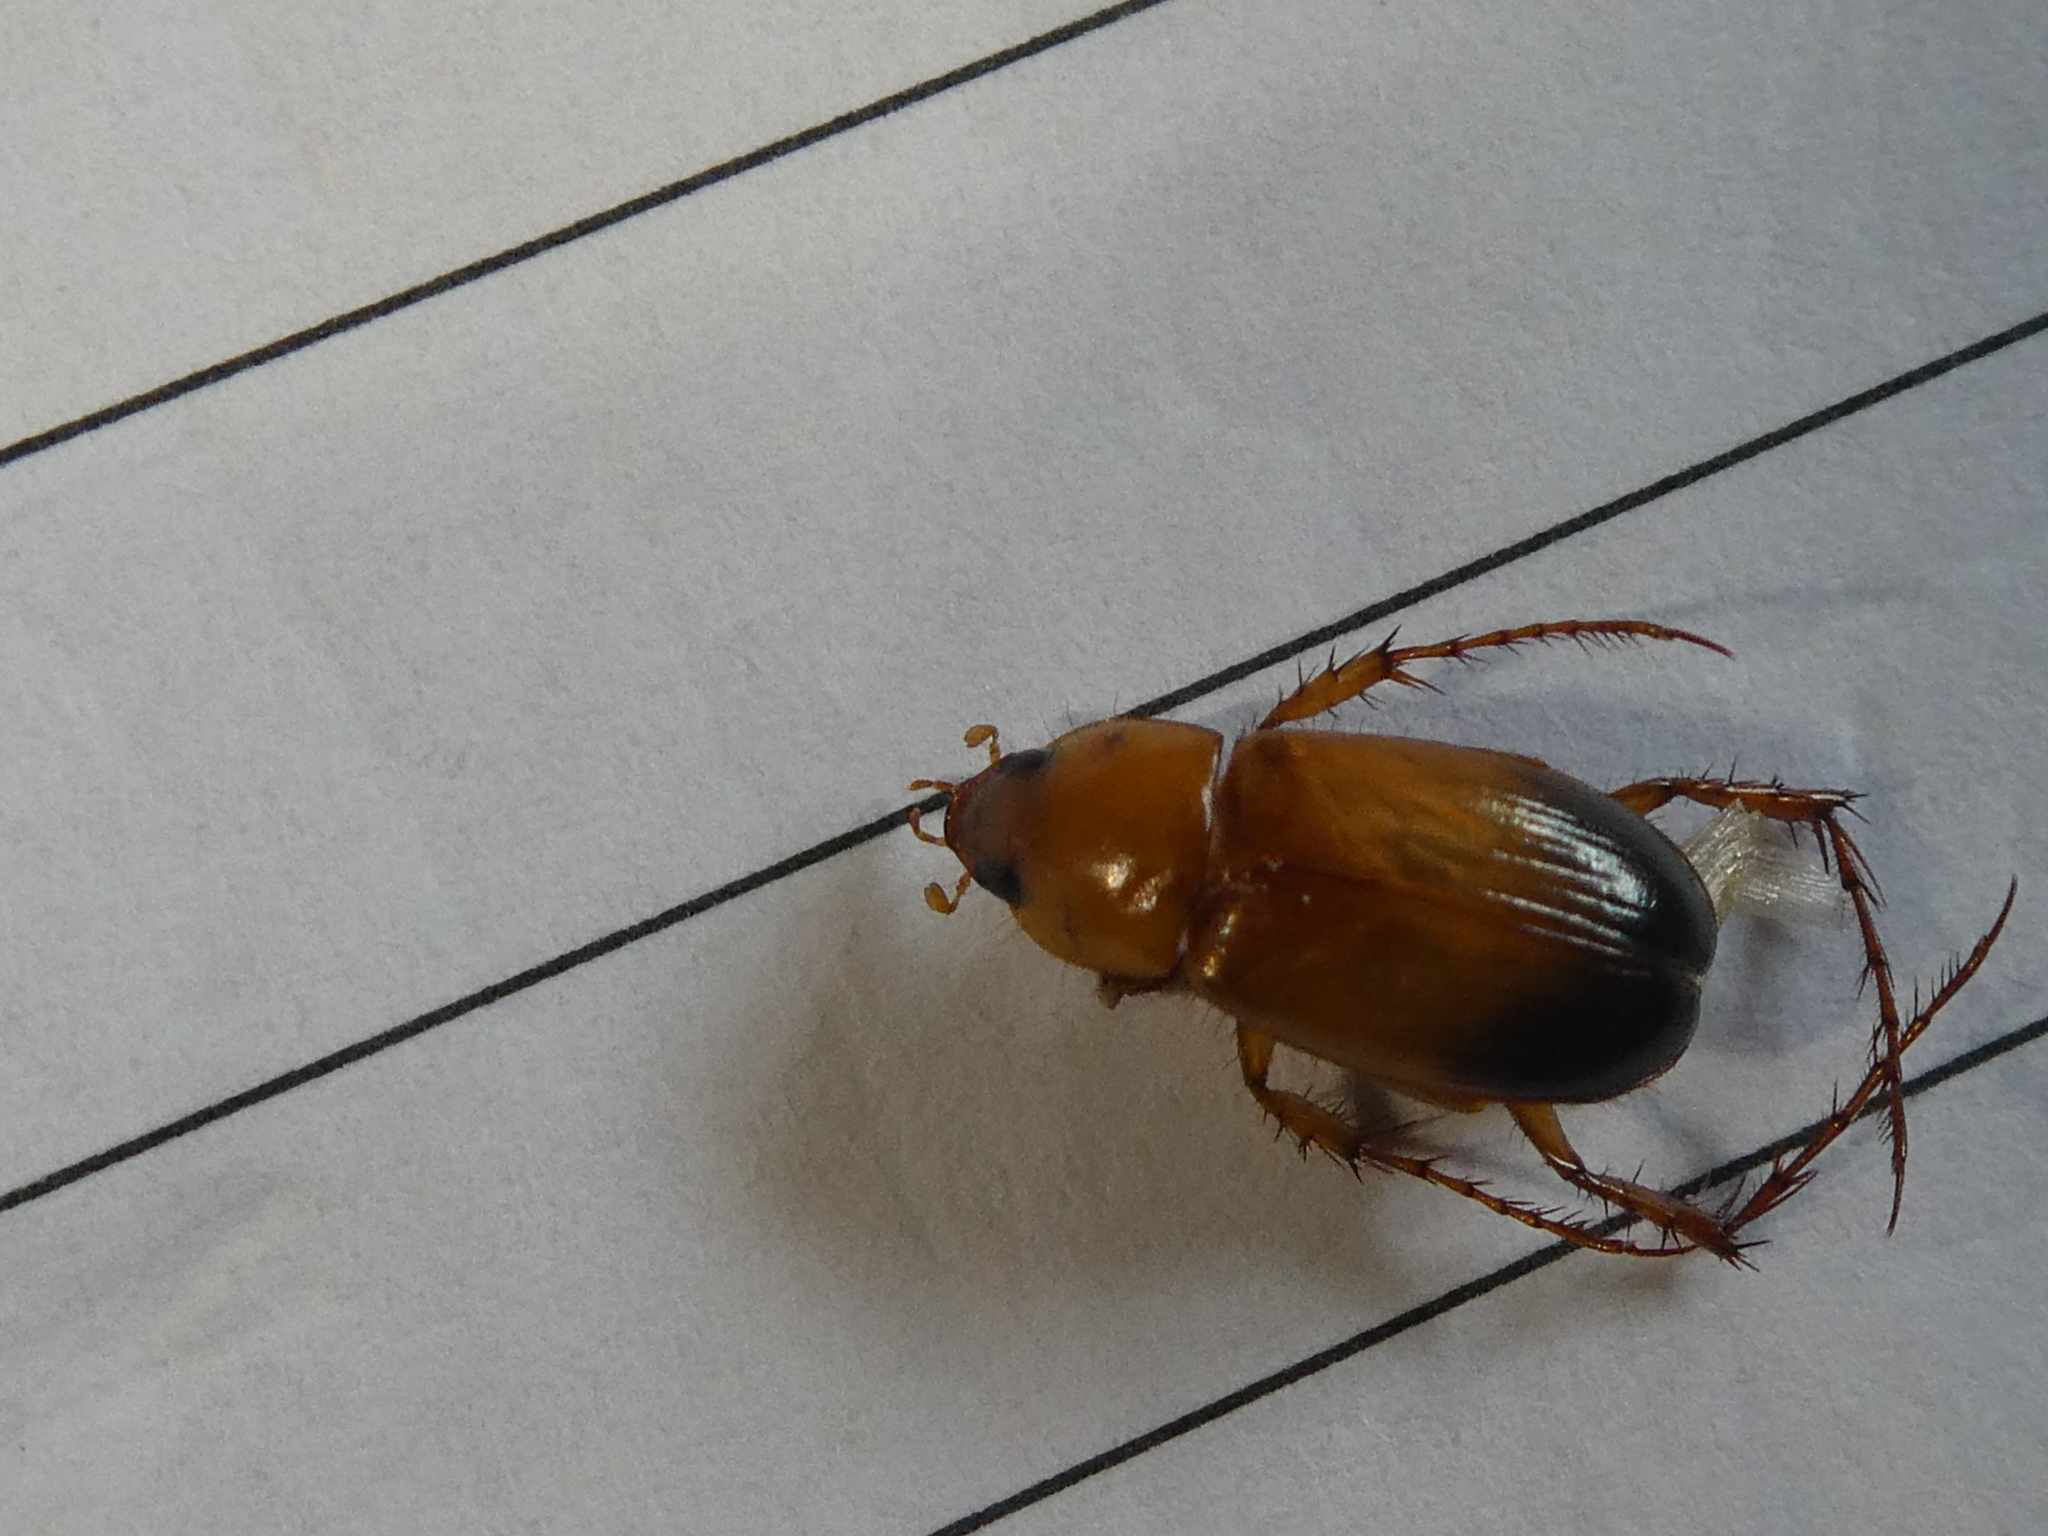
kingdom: Animalia
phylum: Arthropoda
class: Insecta
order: Coleoptera
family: Scarabaeidae
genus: Phyllotocus
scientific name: Phyllotocus macleayi
